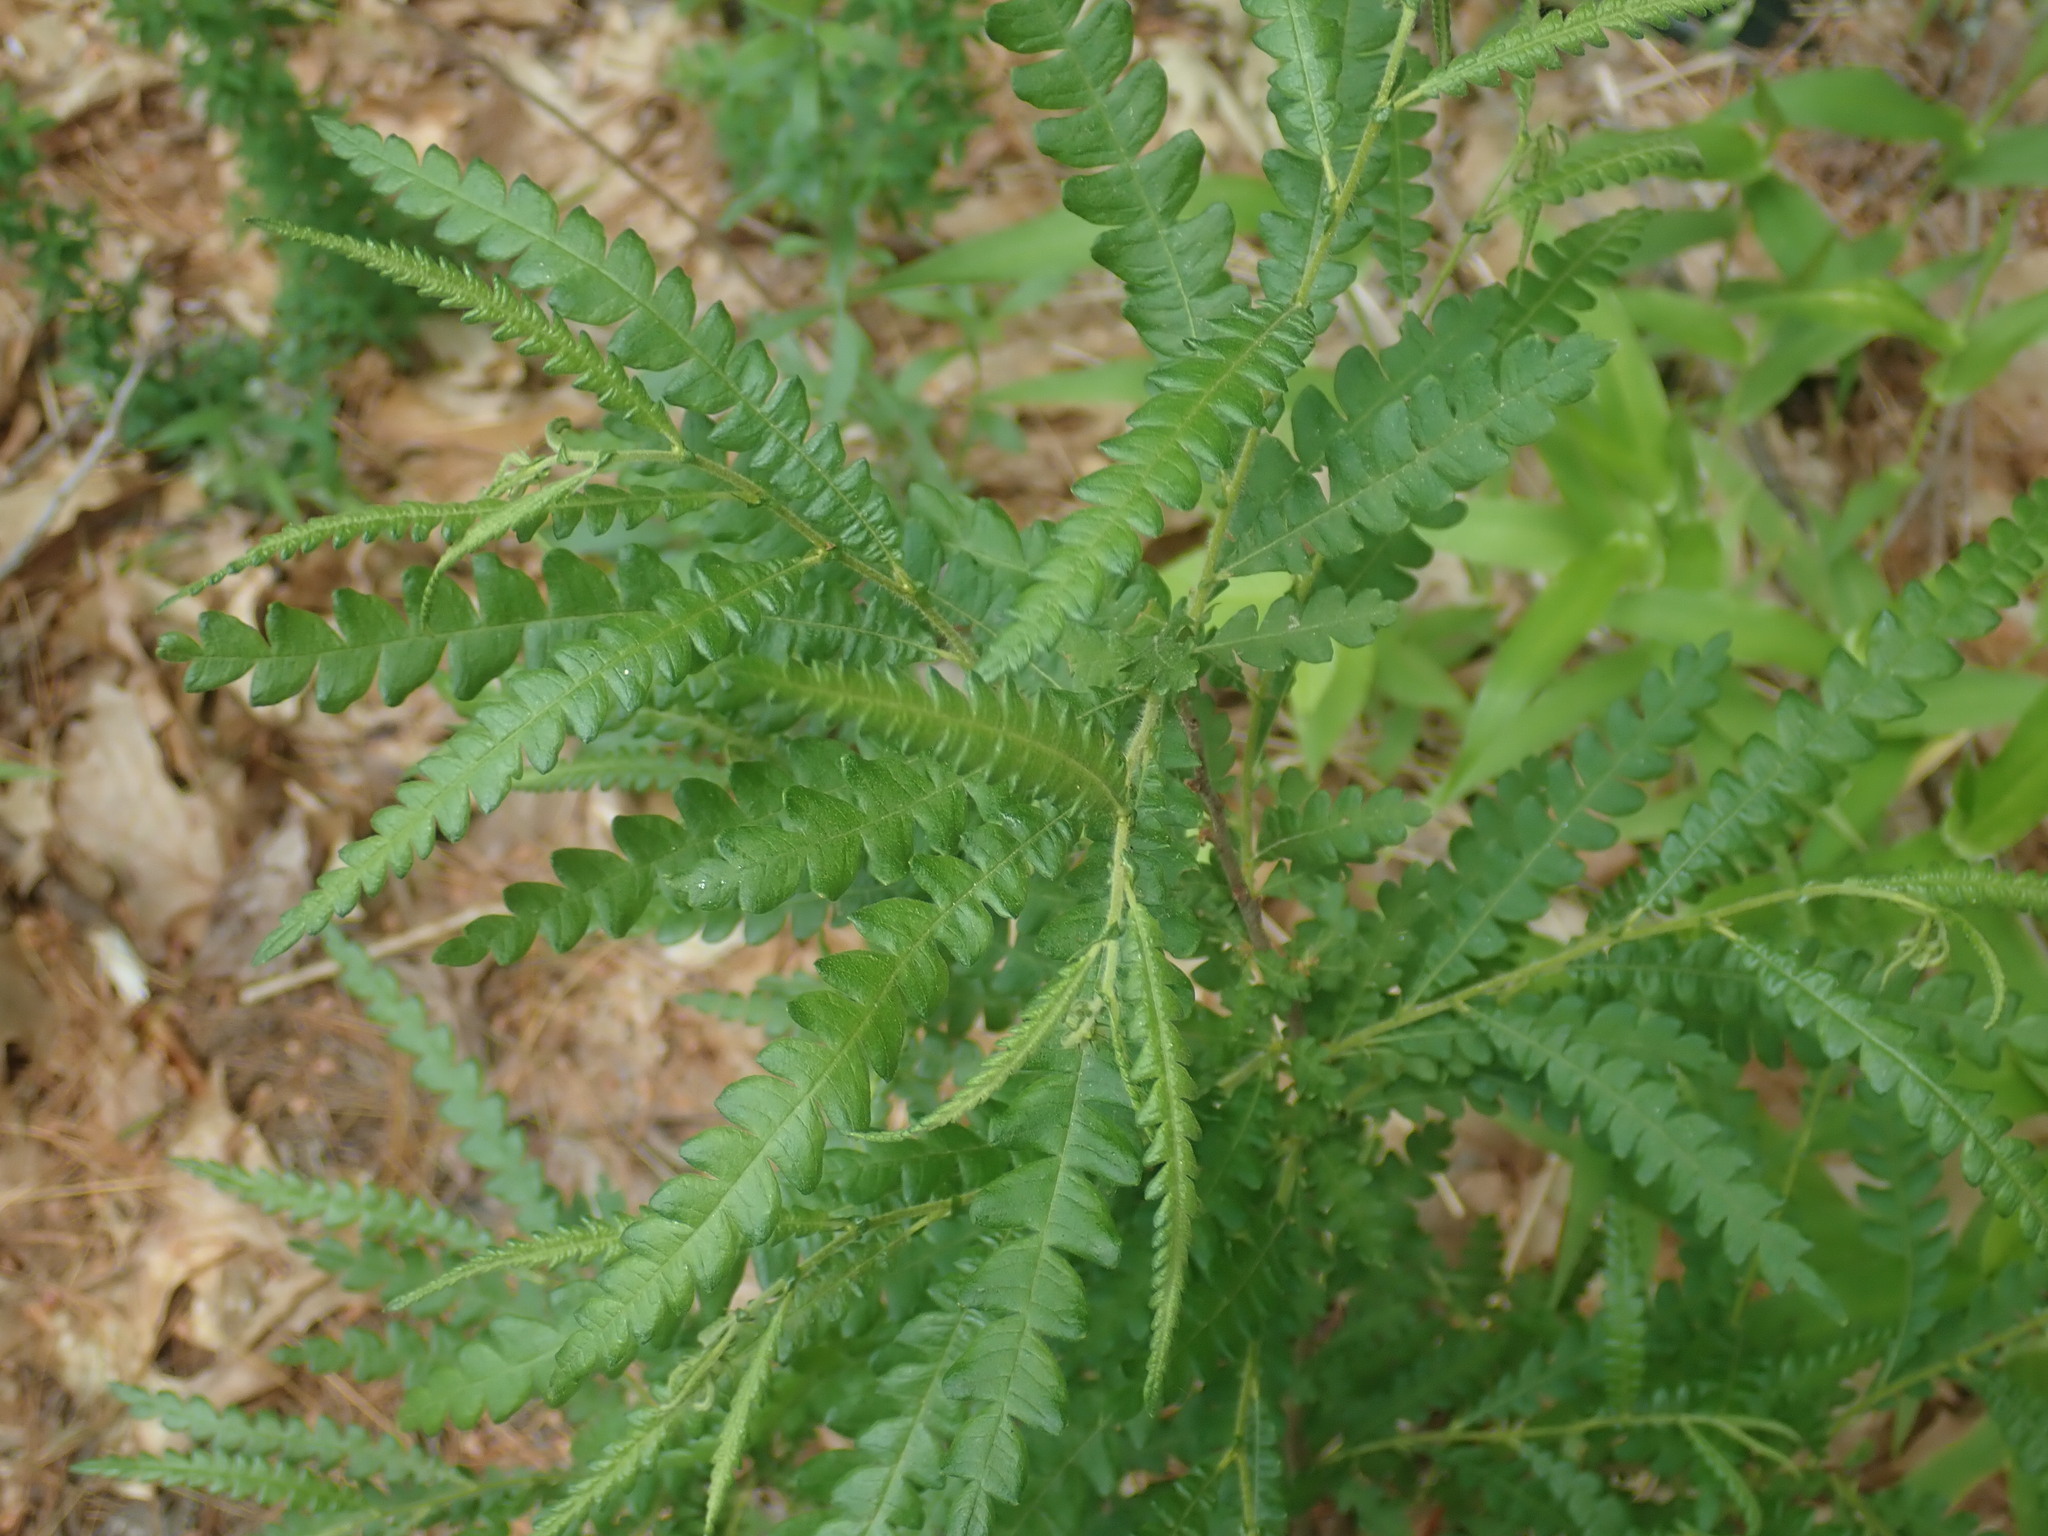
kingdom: Plantae
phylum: Tracheophyta
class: Magnoliopsida
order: Fagales
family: Myricaceae
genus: Comptonia
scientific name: Comptonia peregrina
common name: Sweet-fern
